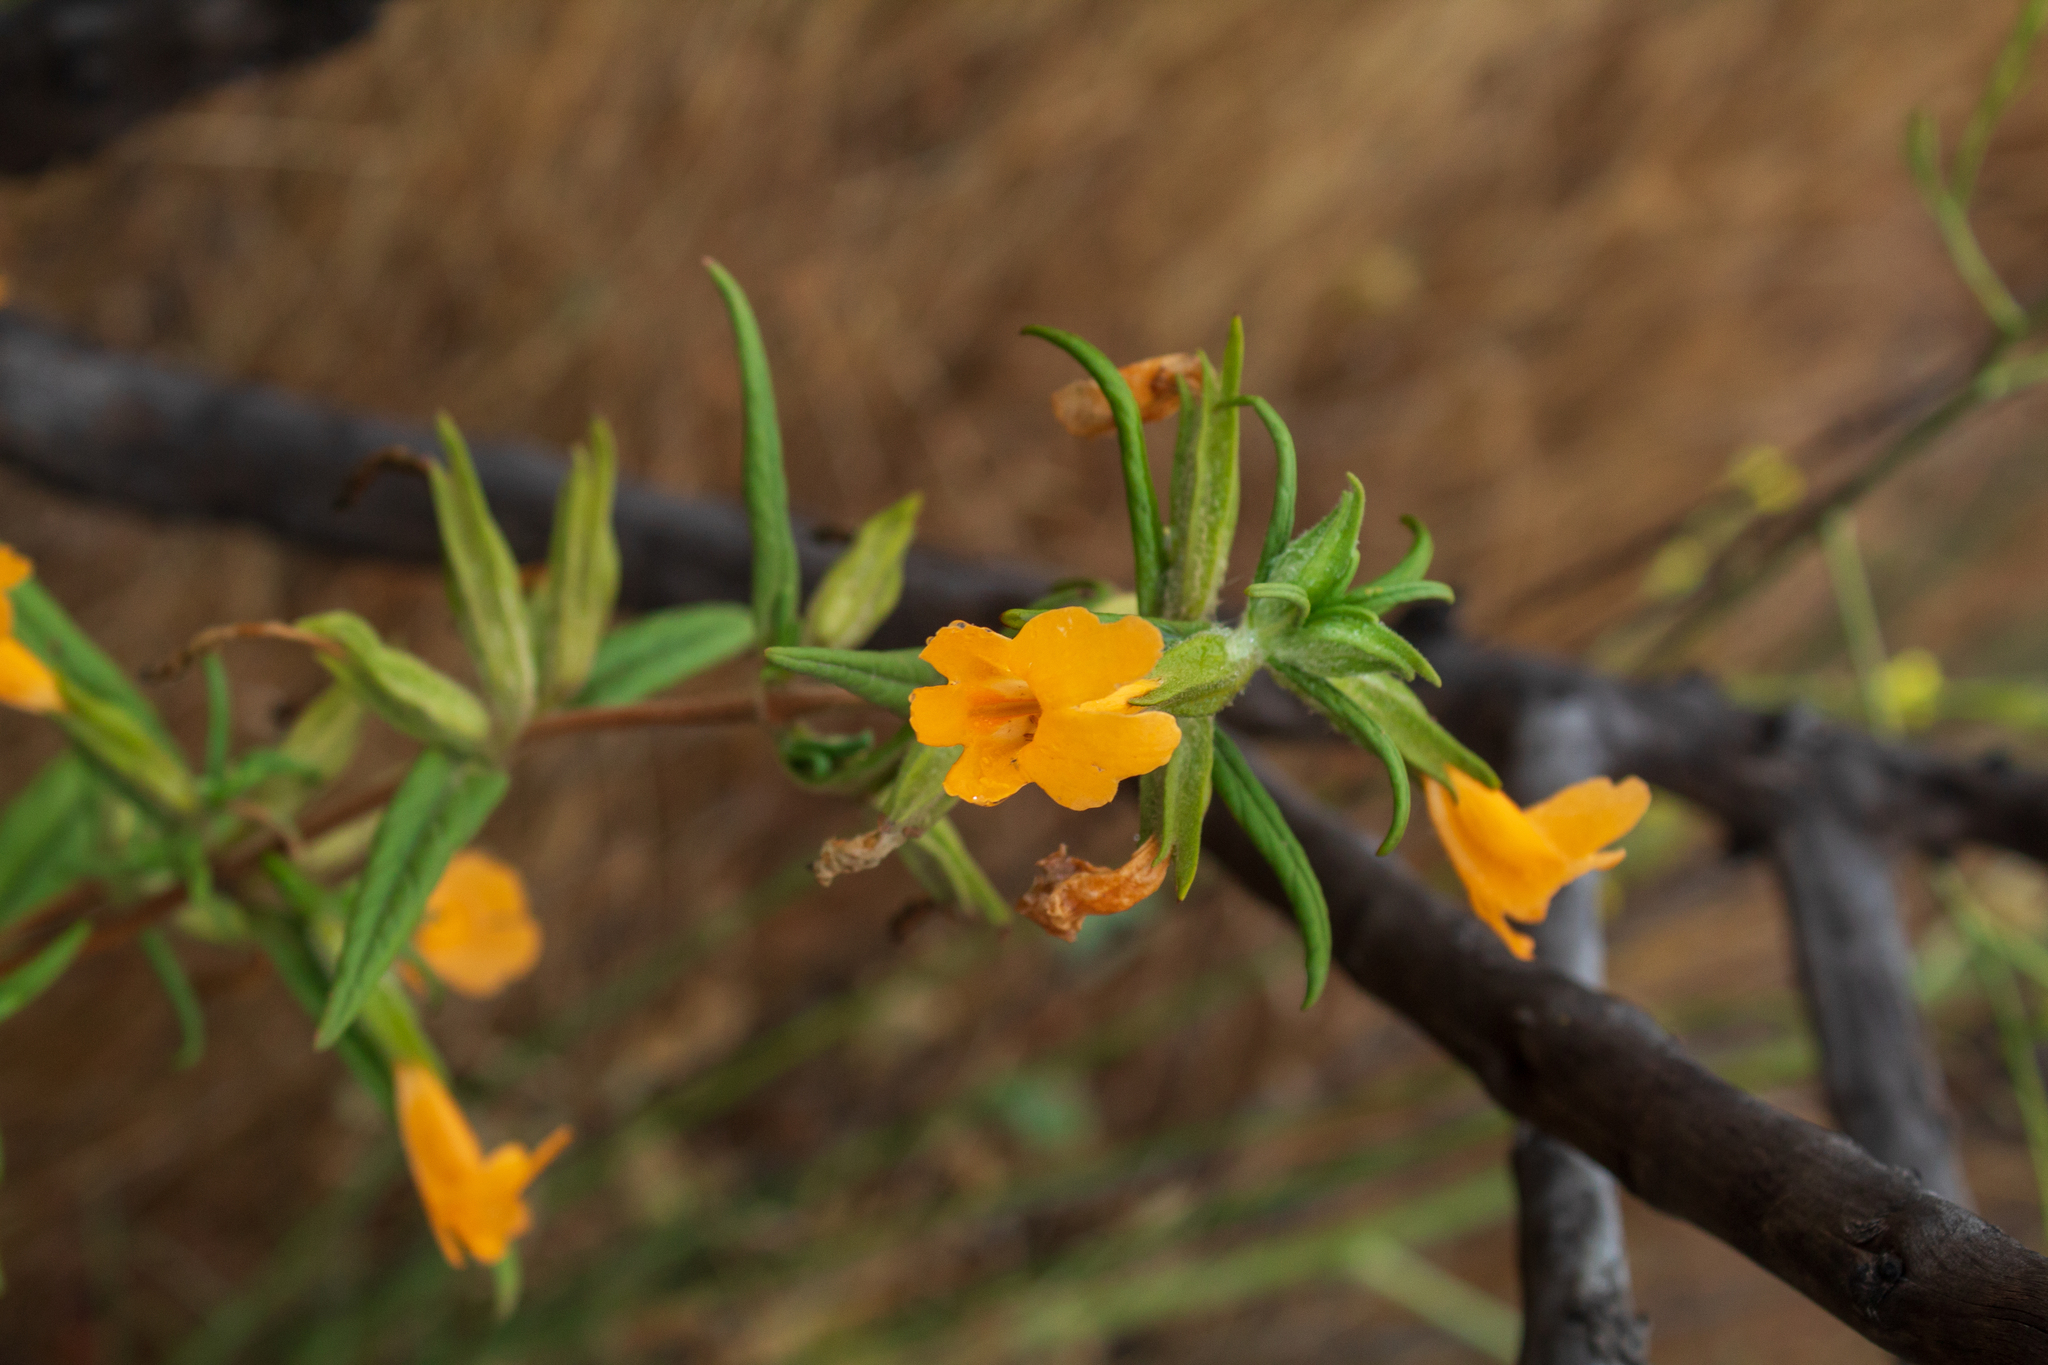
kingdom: Plantae
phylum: Tracheophyta
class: Magnoliopsida
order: Lamiales
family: Phrymaceae
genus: Diplacus
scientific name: Diplacus longiflorus
